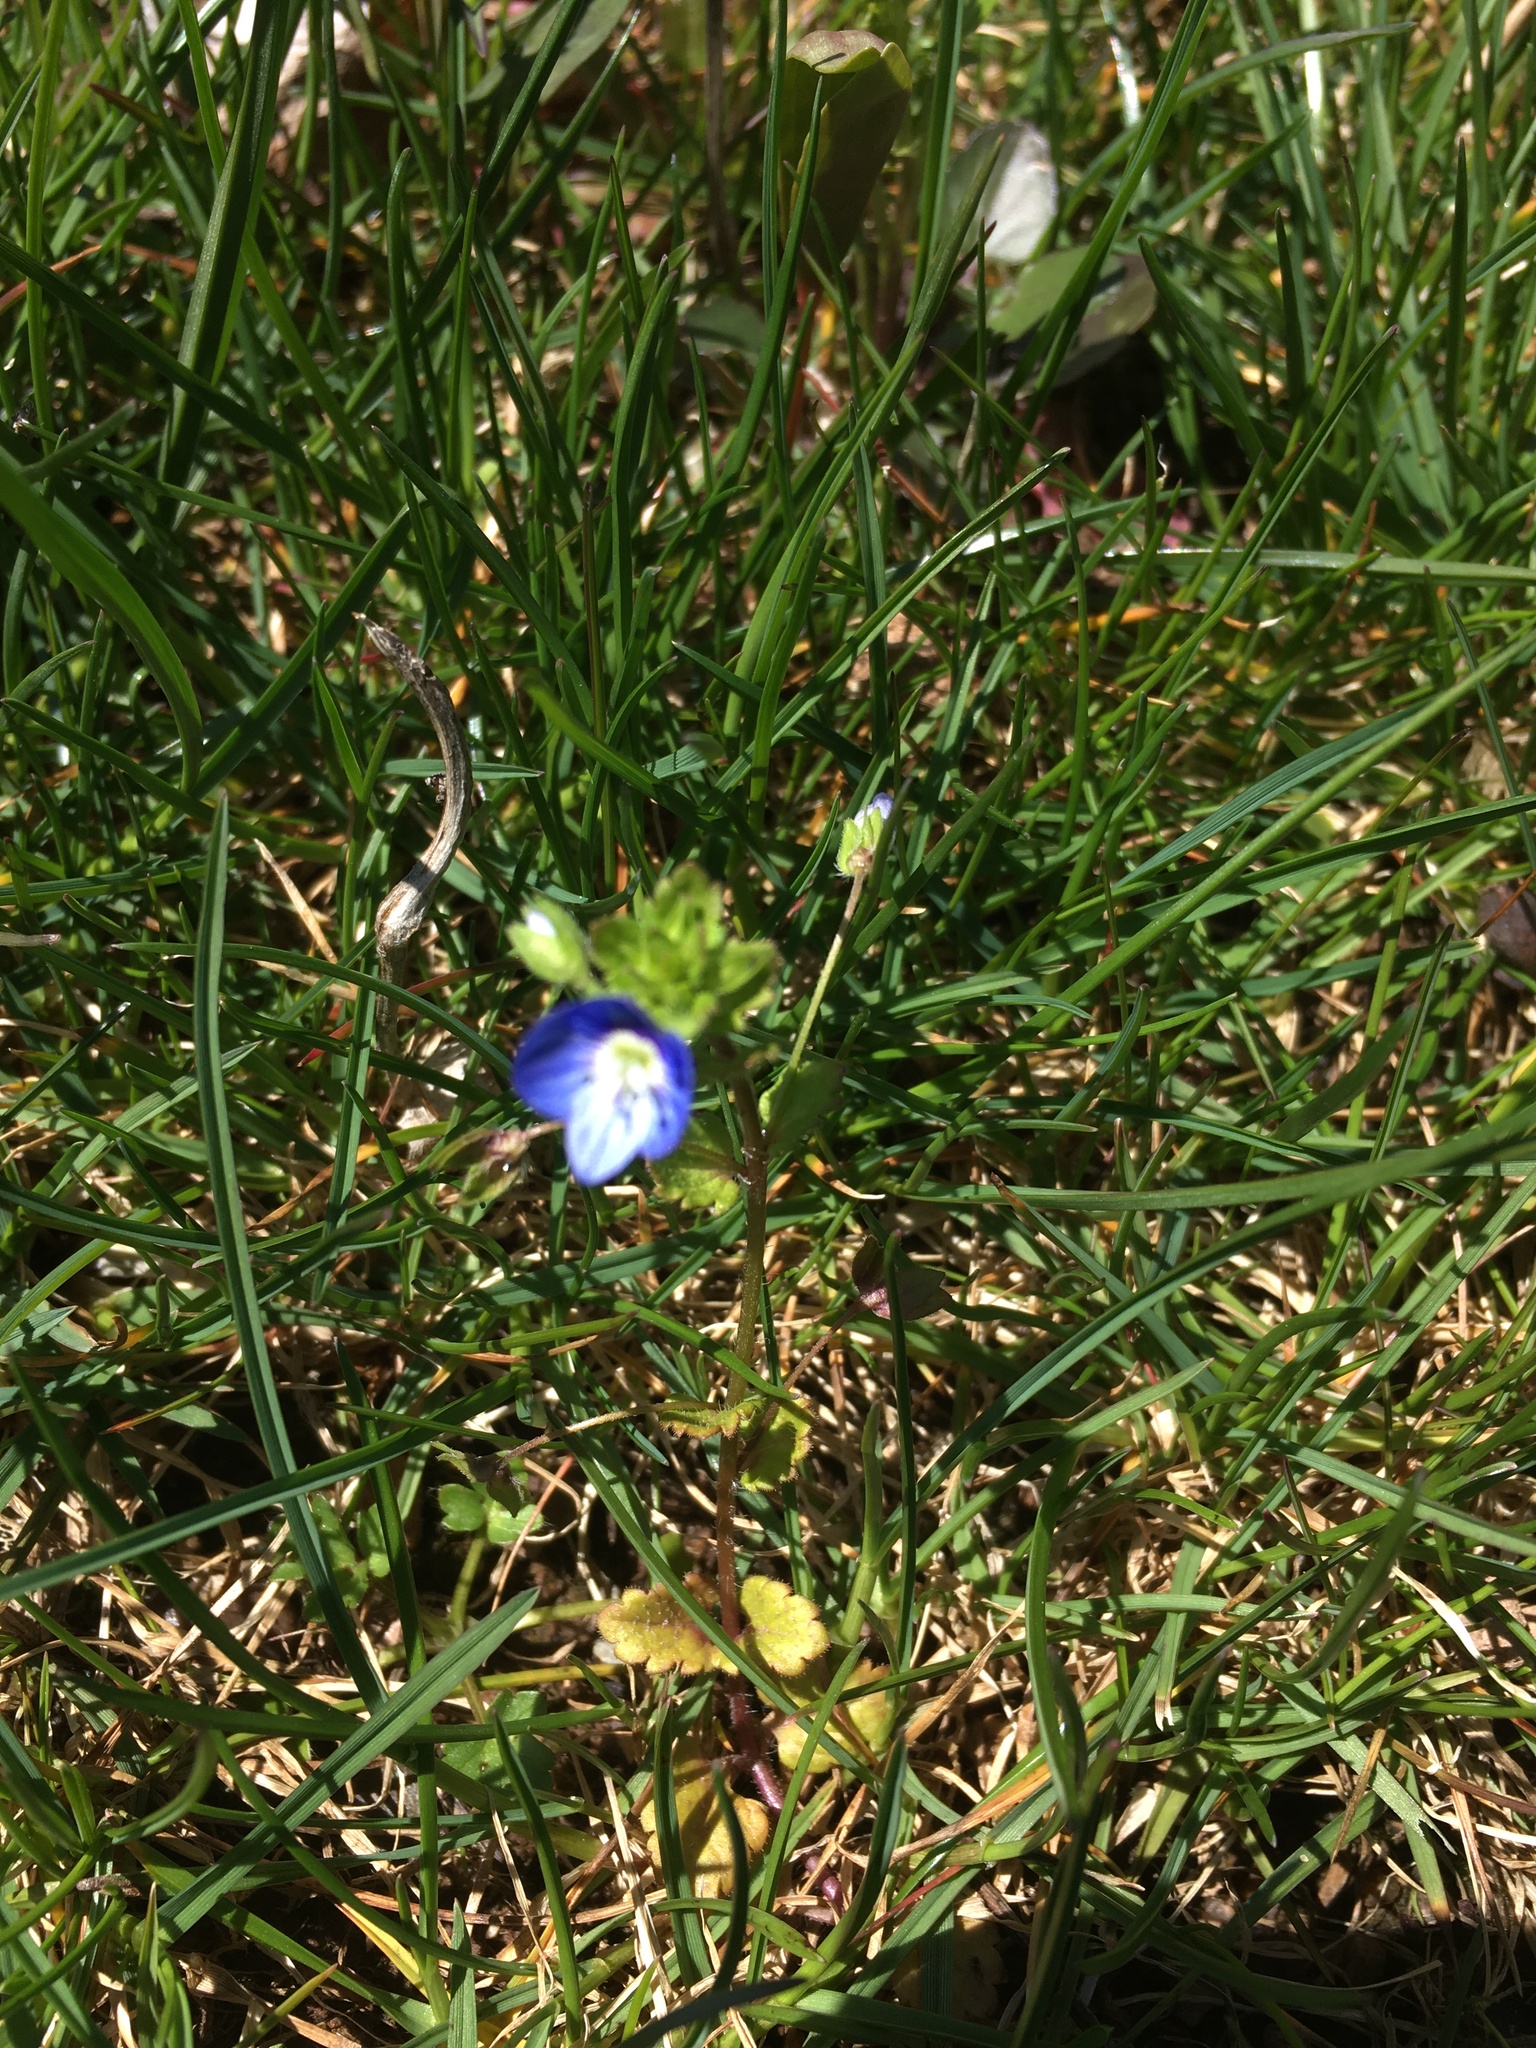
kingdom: Plantae
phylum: Tracheophyta
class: Magnoliopsida
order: Lamiales
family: Plantaginaceae
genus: Veronica
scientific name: Veronica persica
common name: Common field-speedwell
